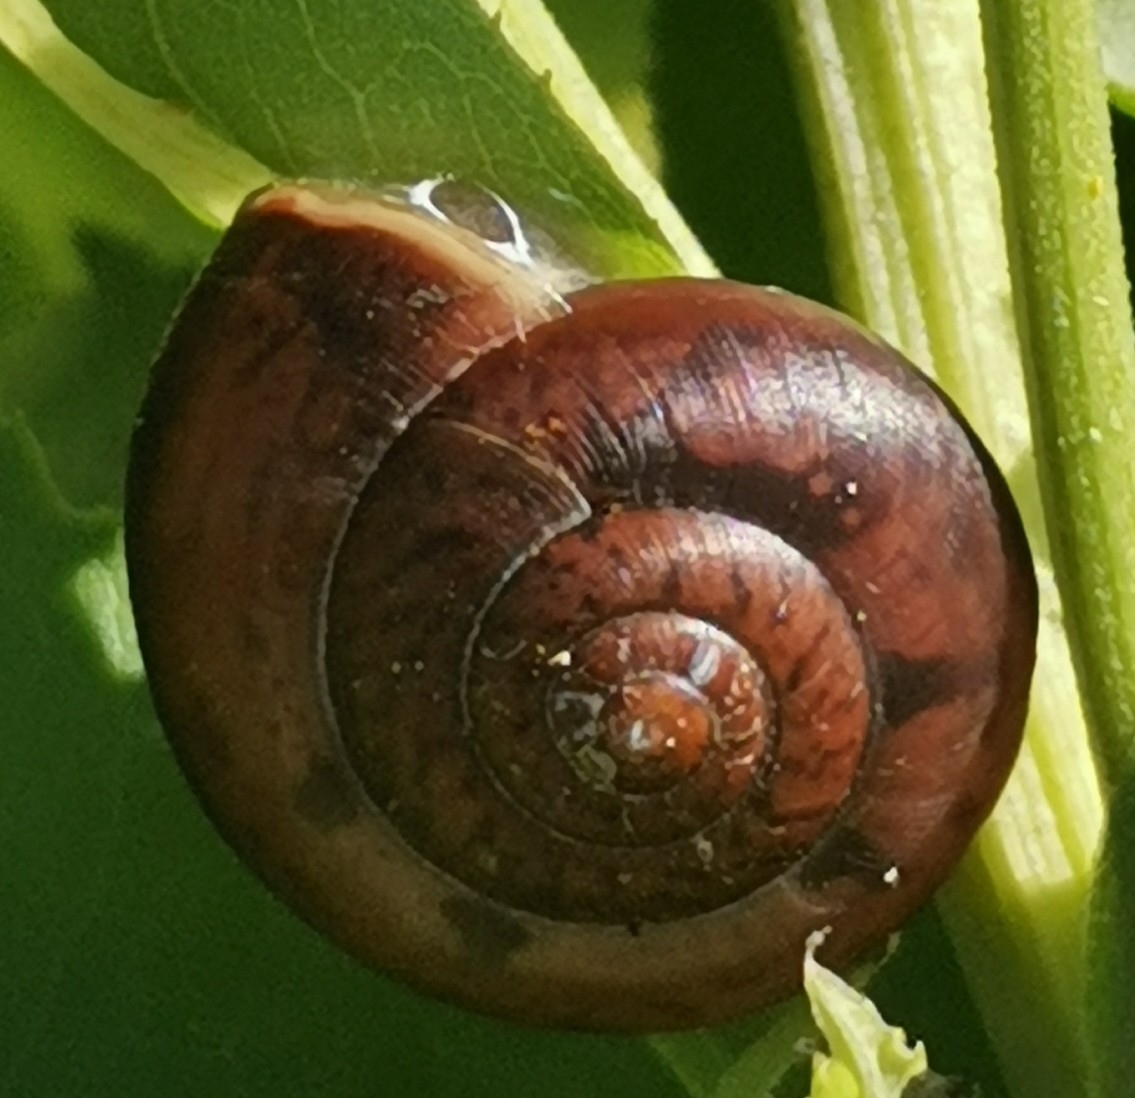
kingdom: Animalia
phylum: Mollusca
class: Gastropoda
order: Stylommatophora
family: Camaenidae
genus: Fruticicola
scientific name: Fruticicola fruticum
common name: Bush snail
